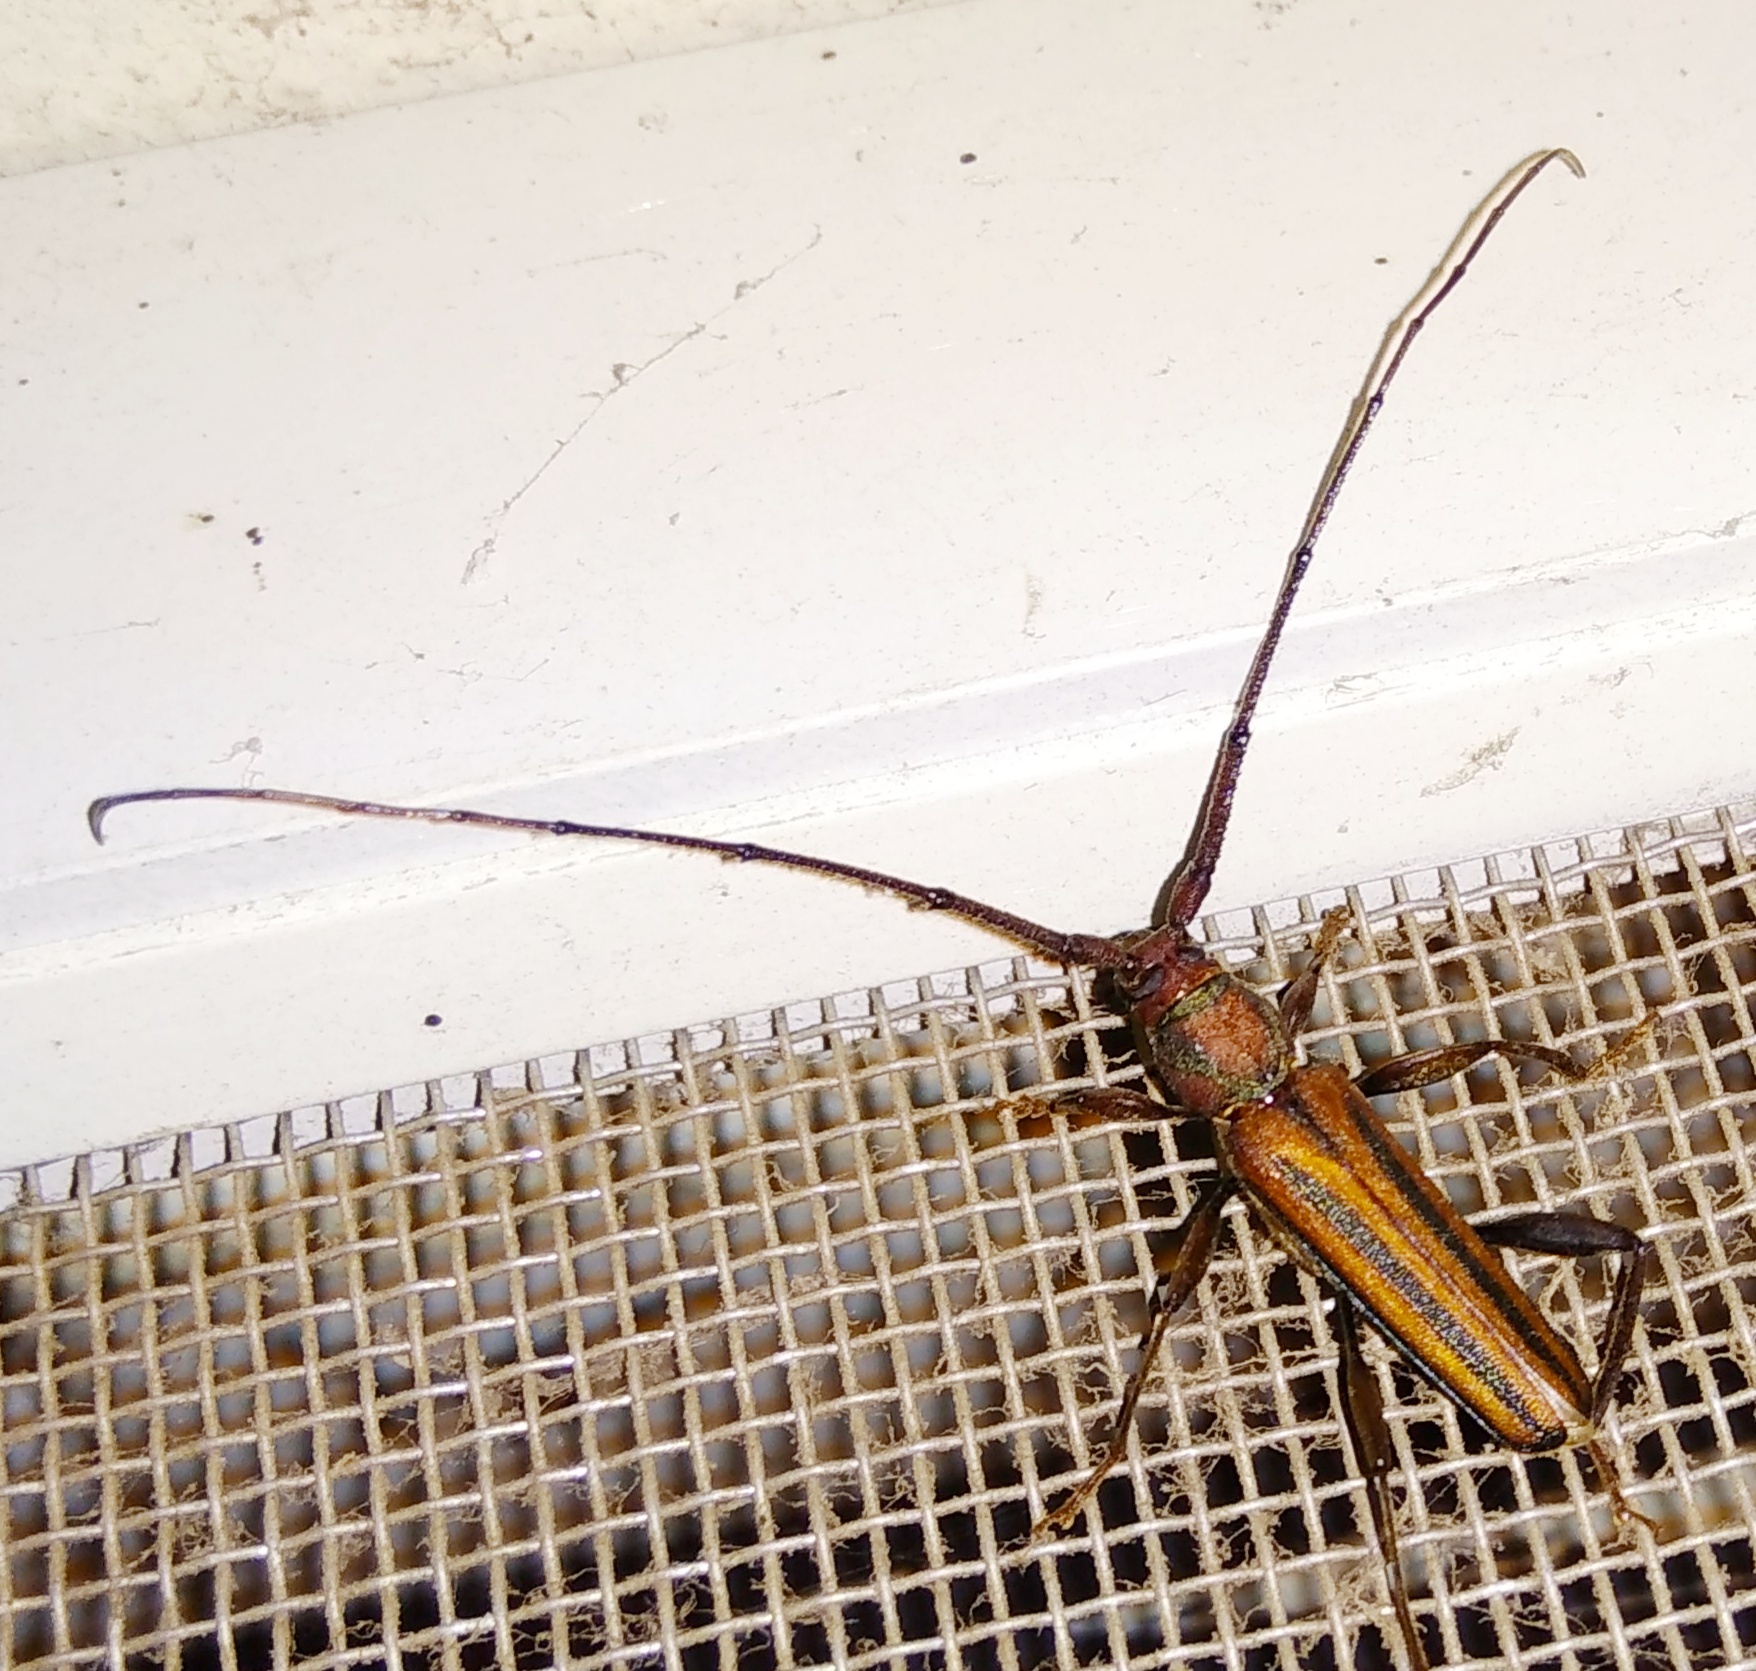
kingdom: Animalia
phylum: Arthropoda
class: Insecta
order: Coleoptera
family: Cerambycidae
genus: Xystrocera
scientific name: Xystrocera globosa
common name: Peach-tree longhorn
